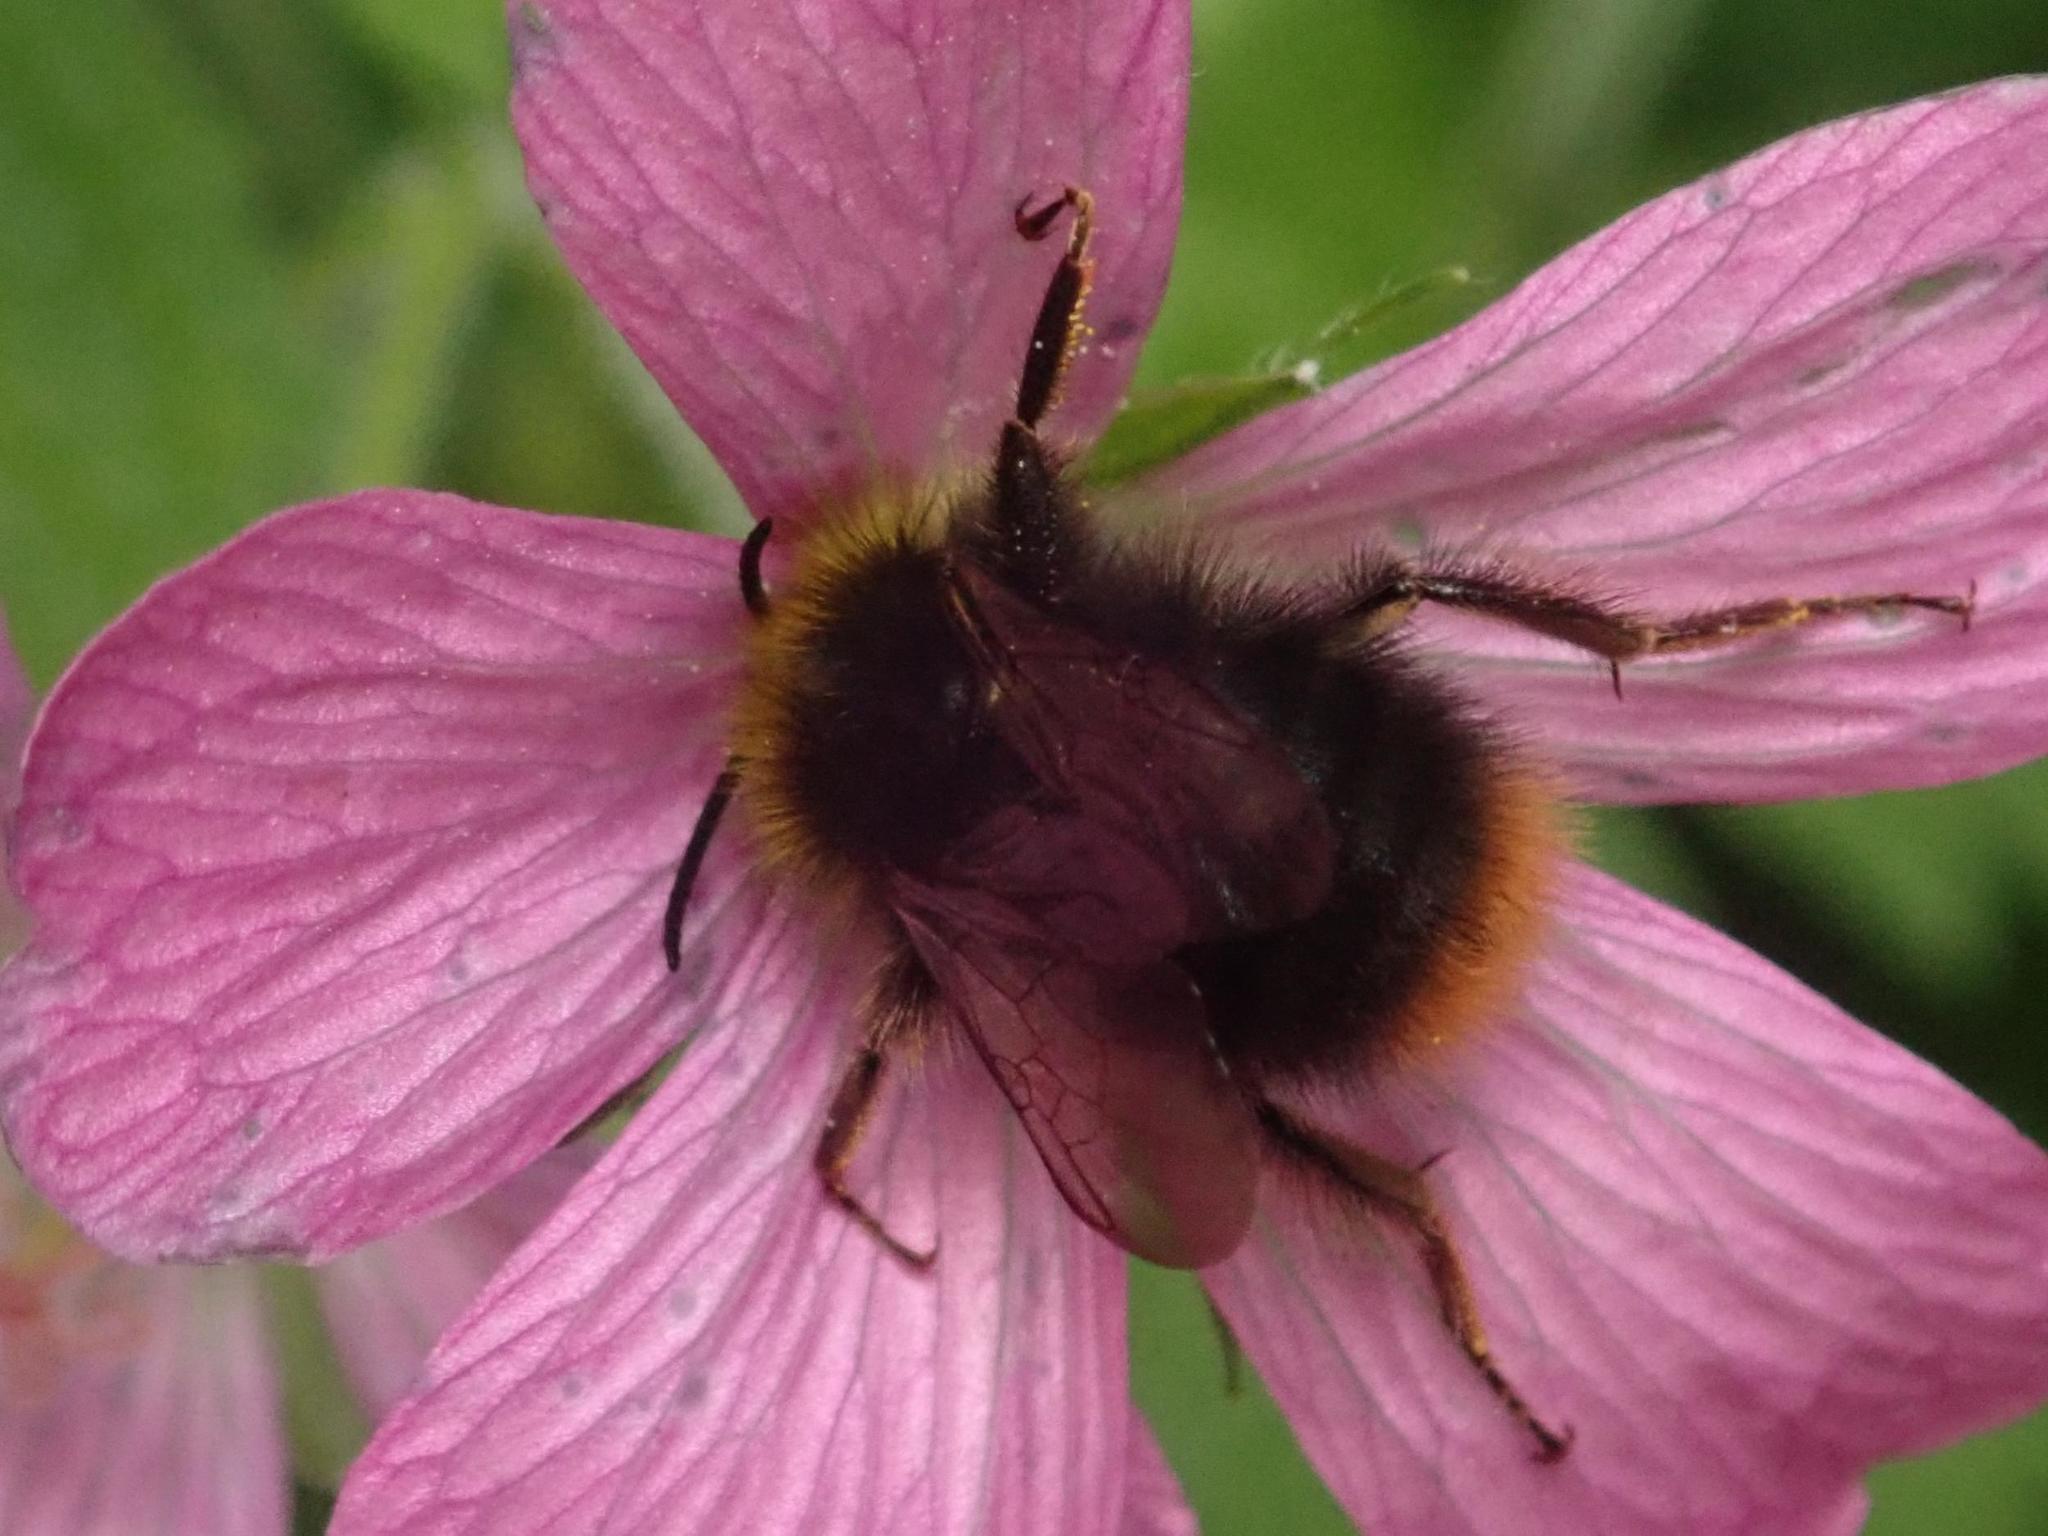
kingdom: Animalia
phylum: Arthropoda
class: Insecta
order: Hymenoptera
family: Apidae
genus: Bombus
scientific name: Bombus pratorum
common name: Early humble-bee
